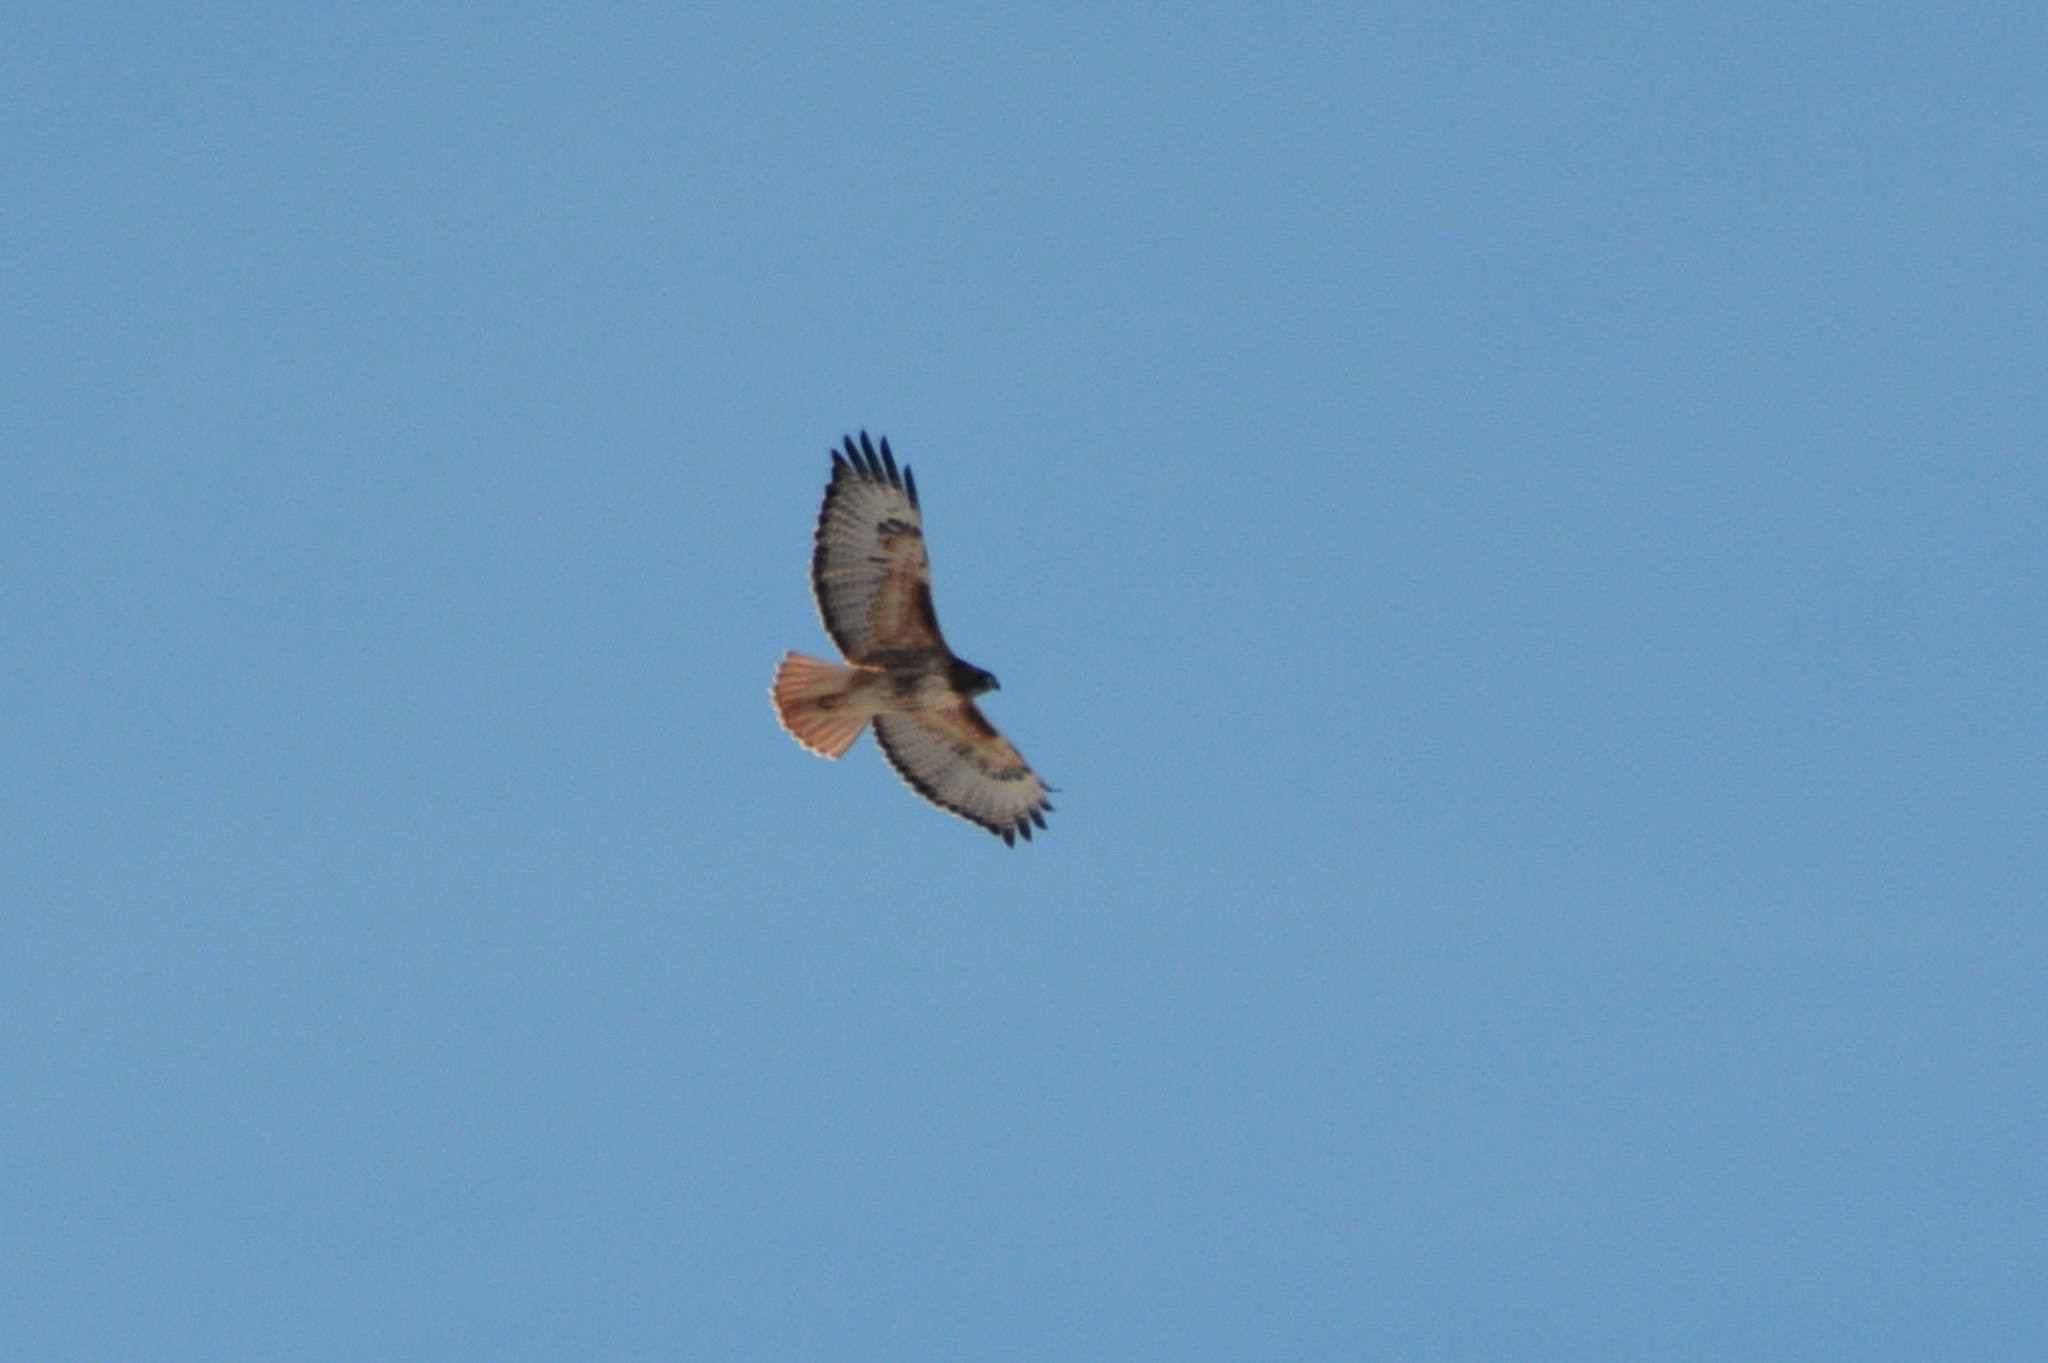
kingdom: Animalia
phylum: Chordata
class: Aves
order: Accipitriformes
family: Accipitridae
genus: Buteo
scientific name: Buteo jamaicensis
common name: Red-tailed hawk
